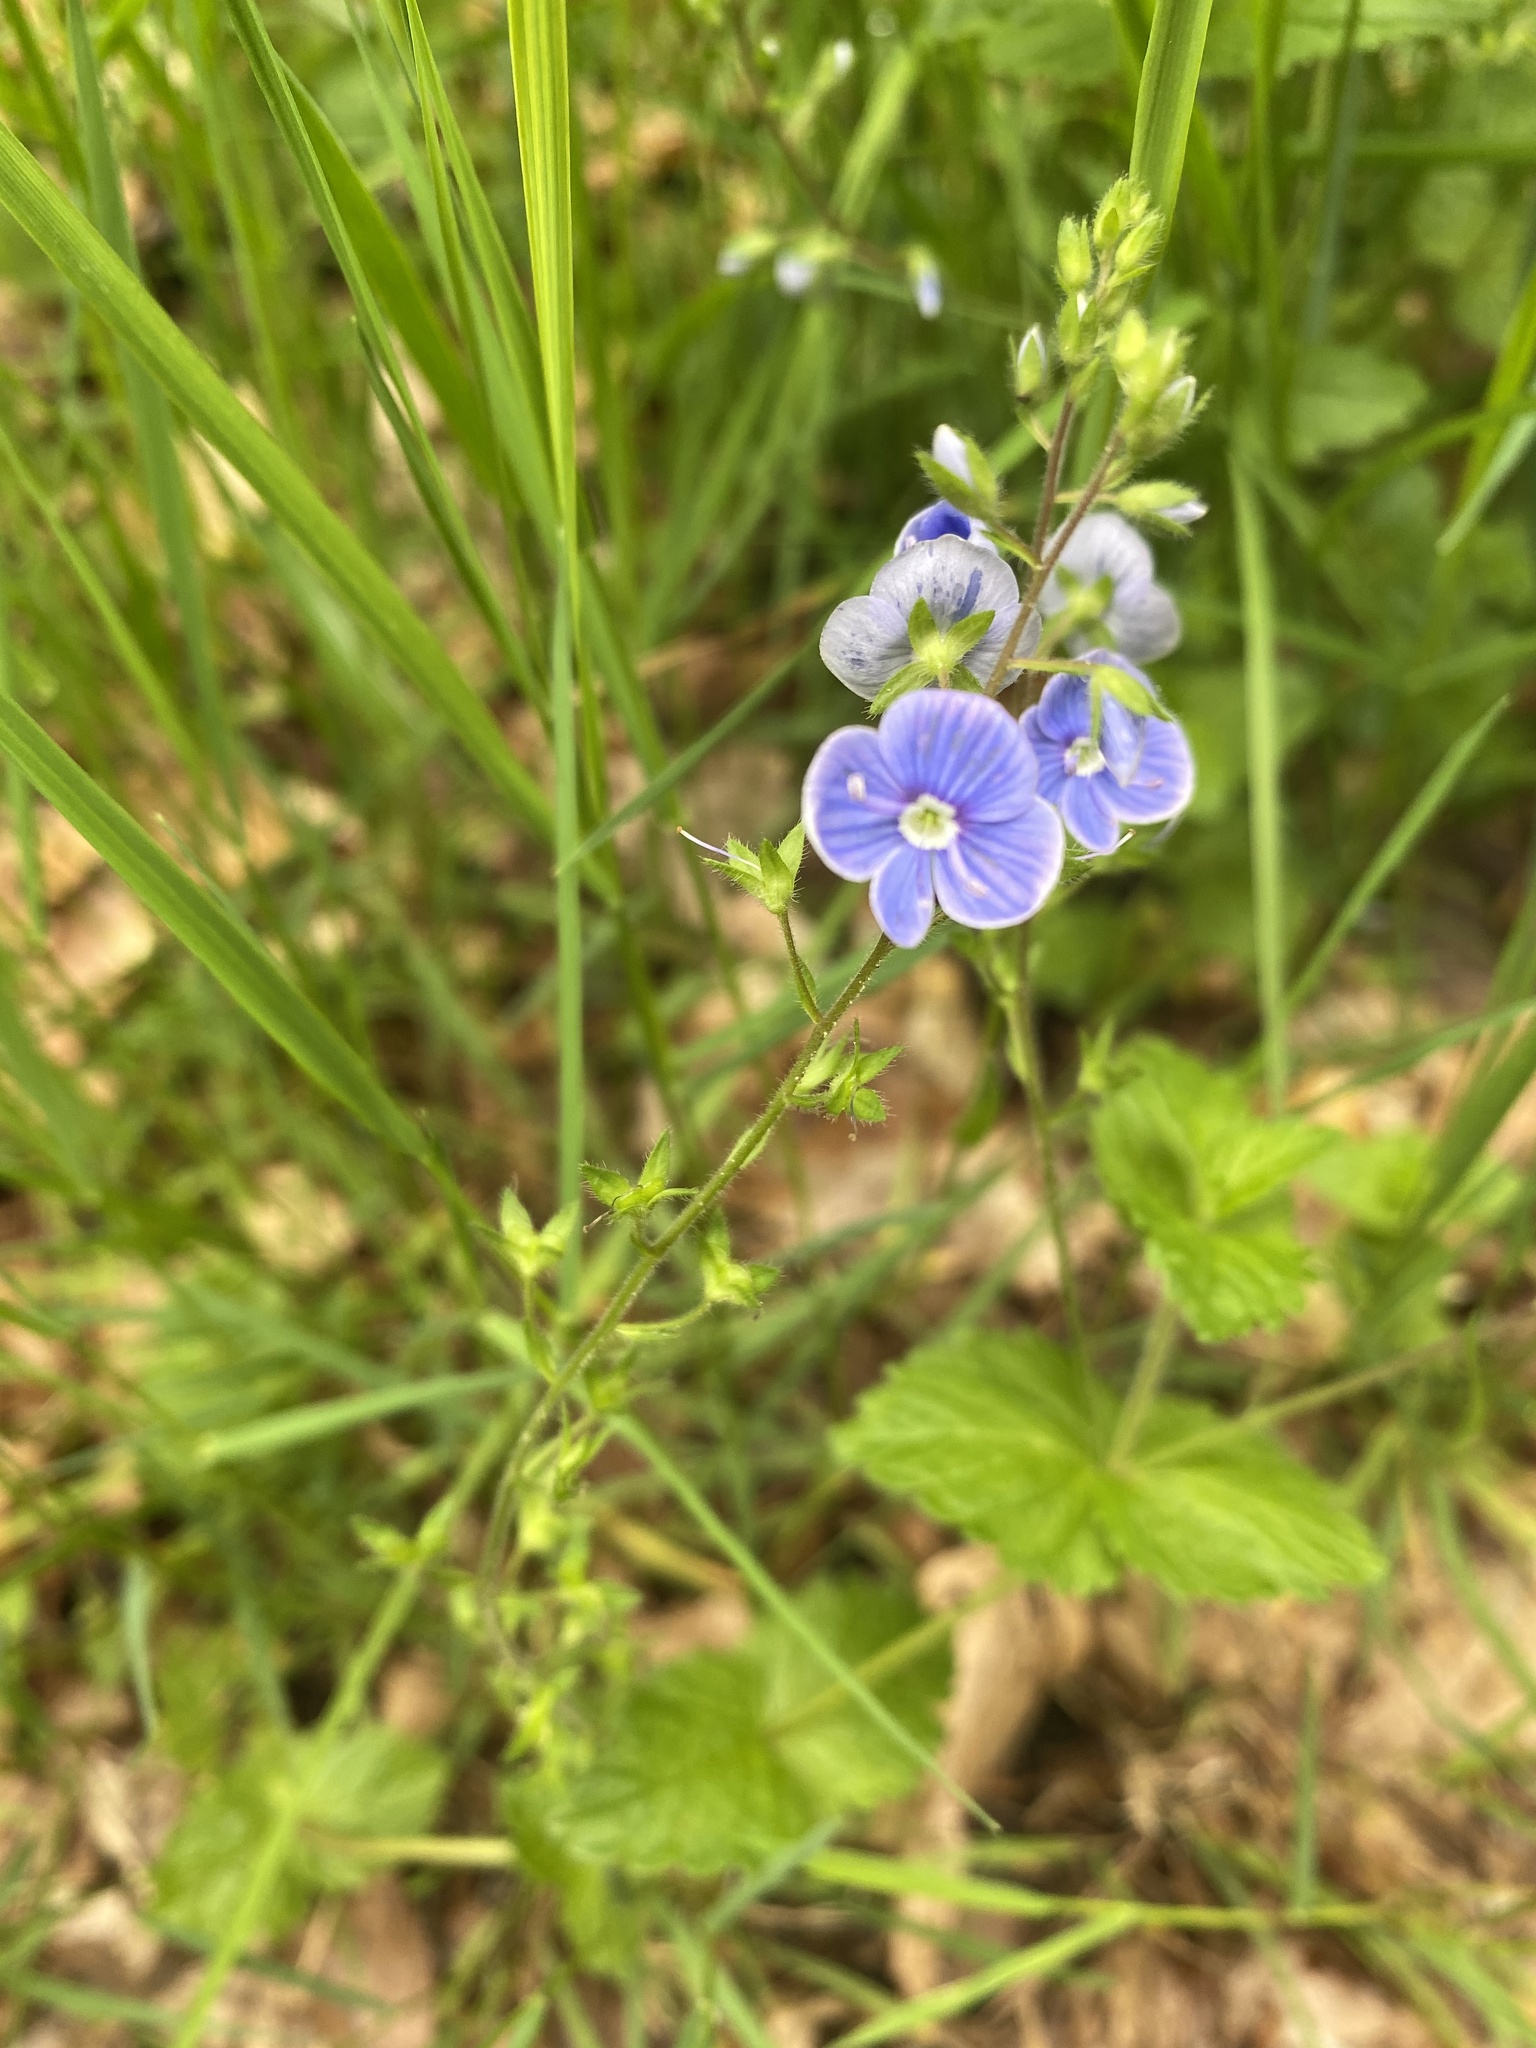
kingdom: Plantae
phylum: Tracheophyta
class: Magnoliopsida
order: Lamiales
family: Plantaginaceae
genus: Veronica
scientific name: Veronica chamaedrys
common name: Germander speedwell
